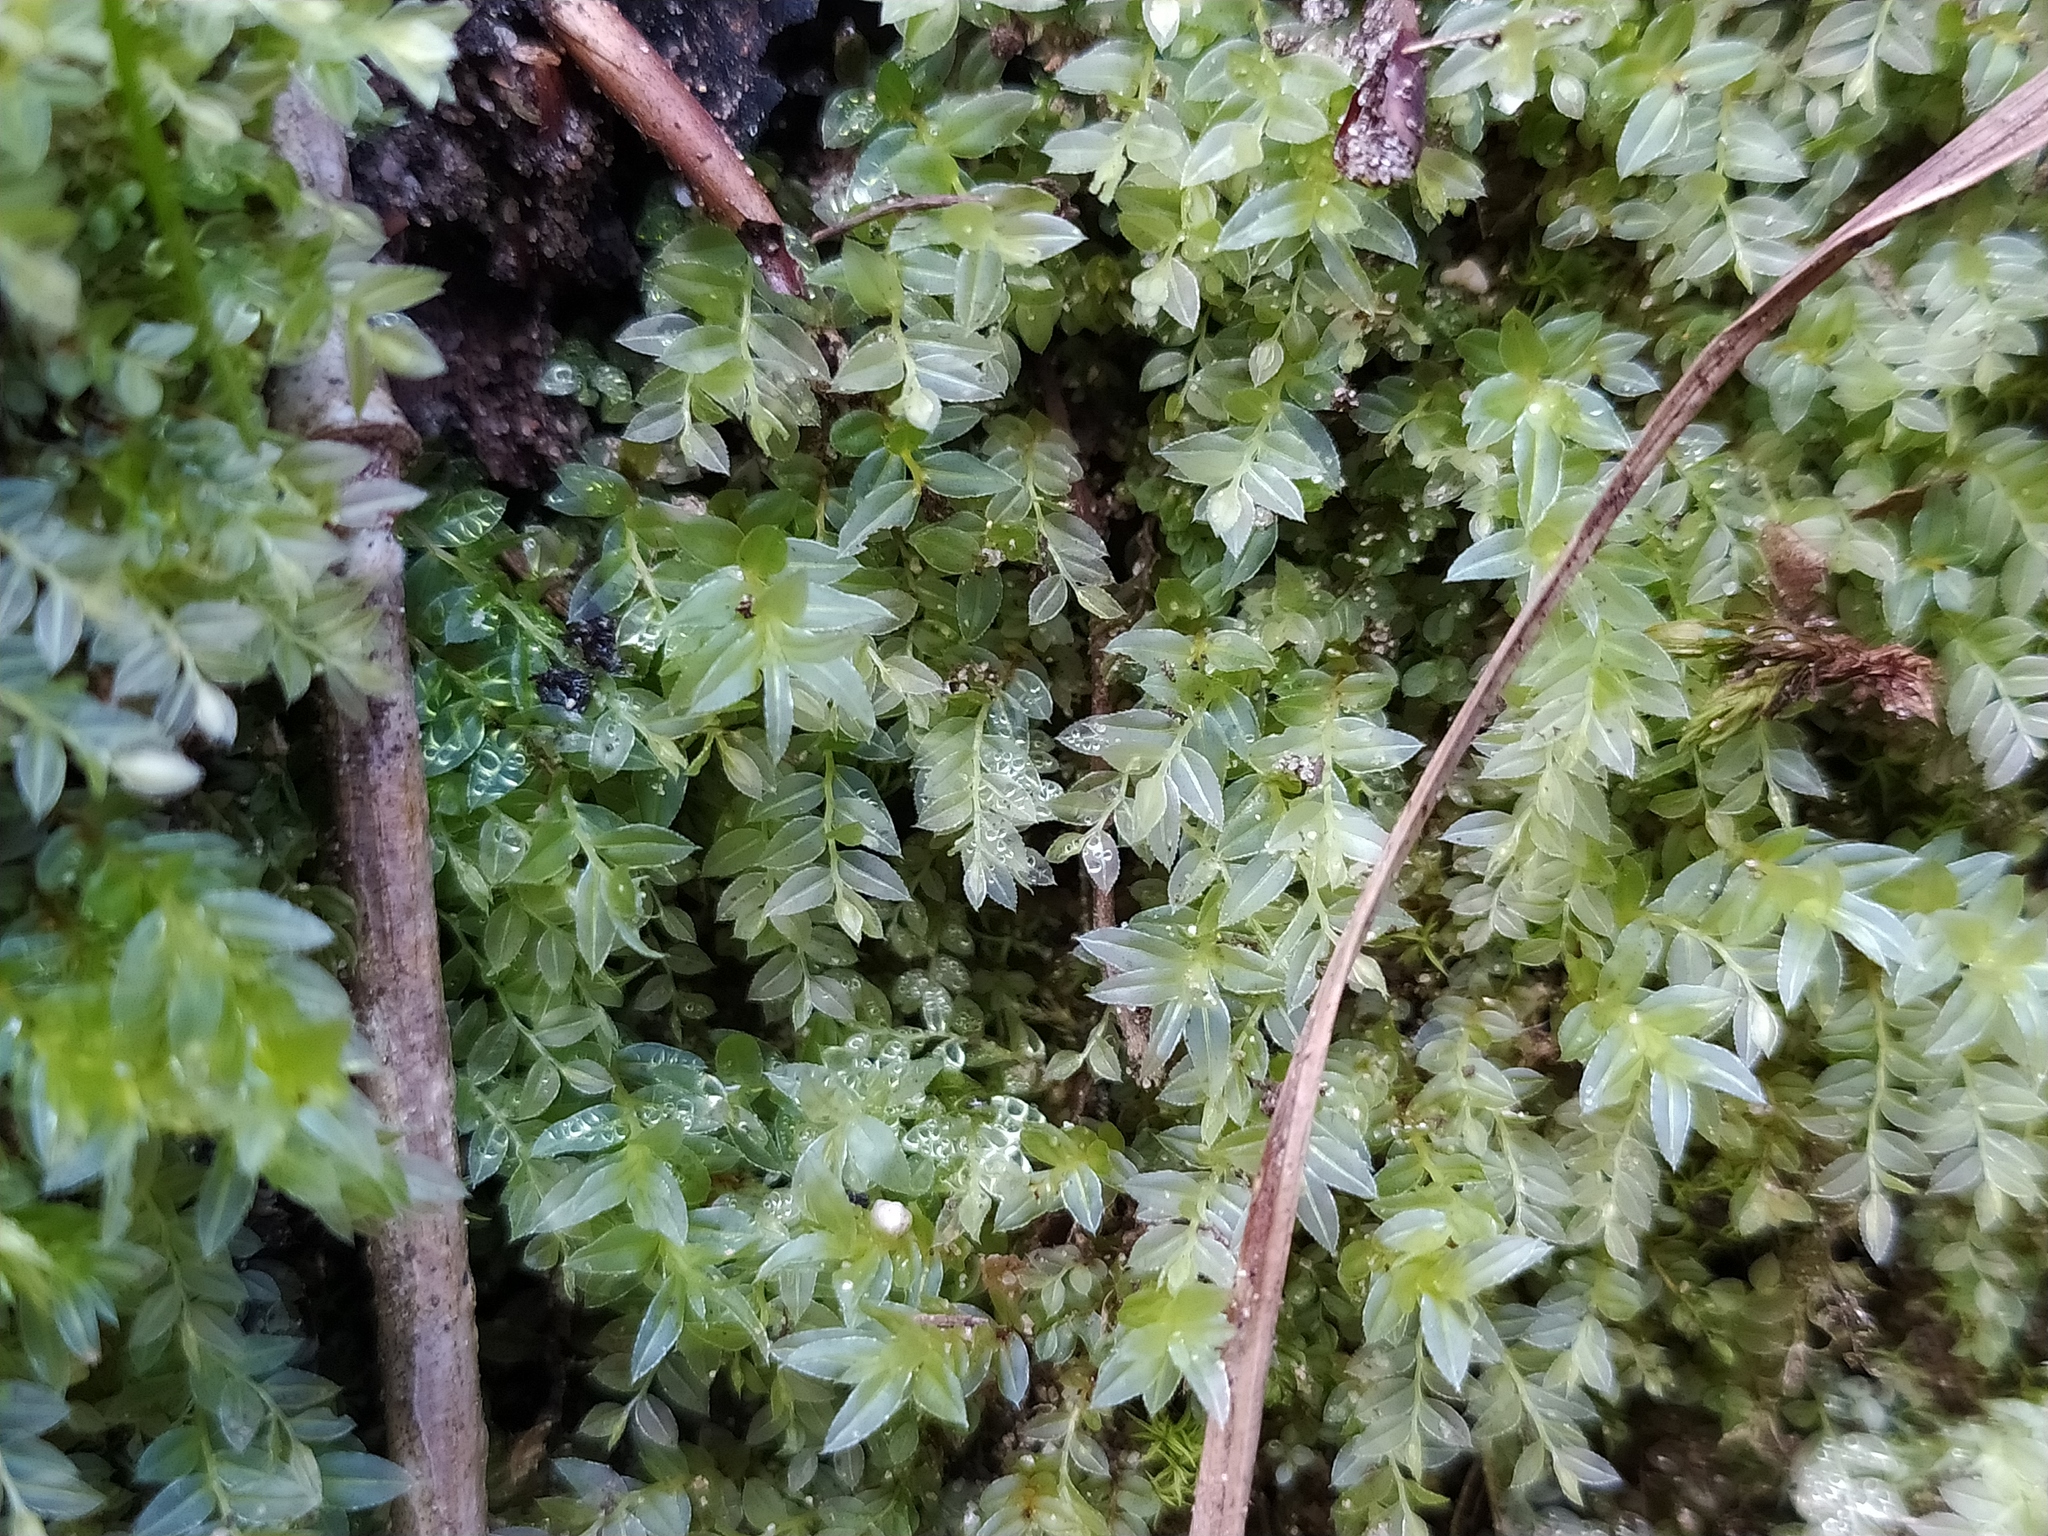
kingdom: Plantae
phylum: Bryophyta
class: Bryopsida
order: Bryales
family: Mniaceae
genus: Mnium
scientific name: Mnium stellare
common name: Star leafy moss
